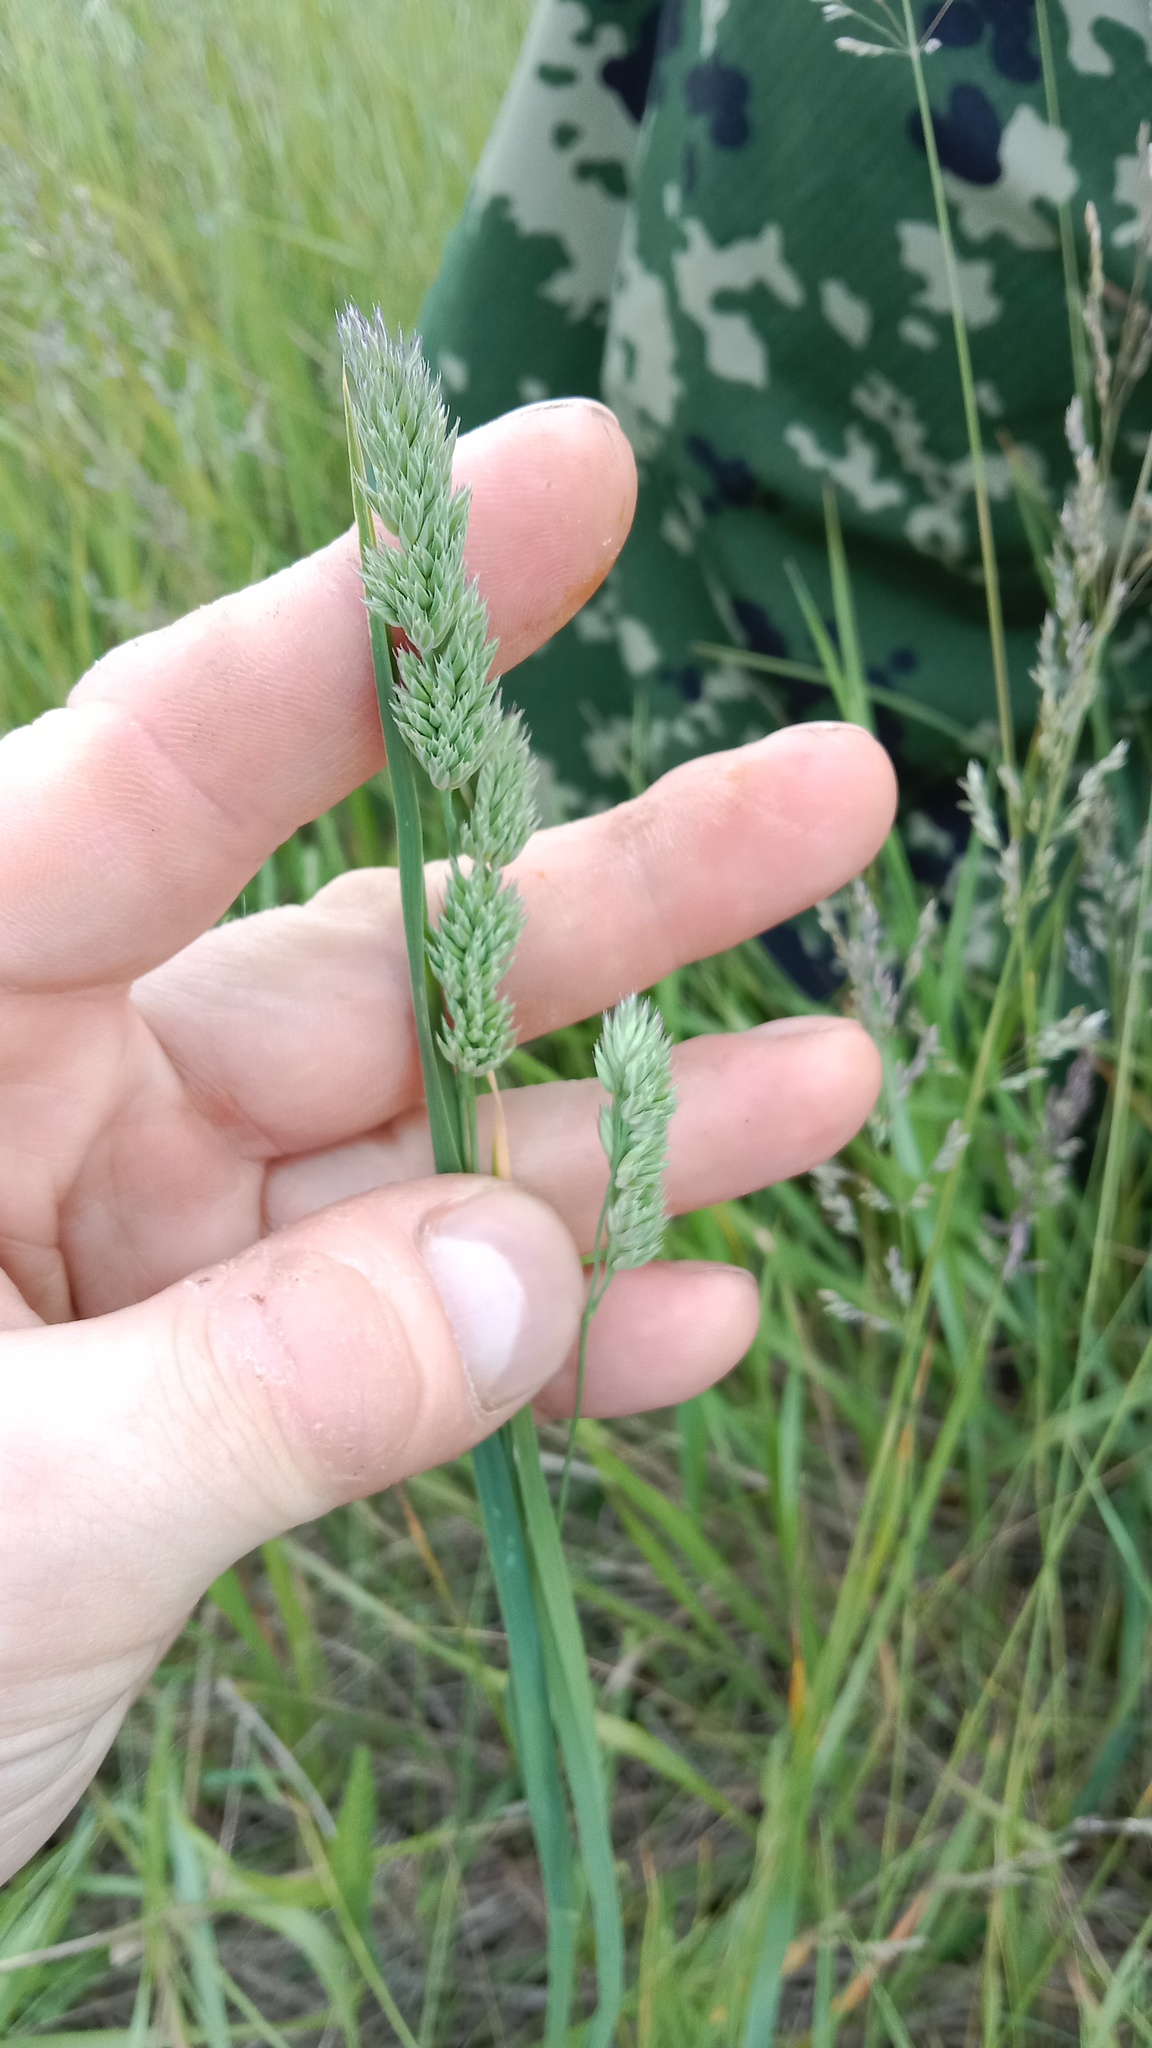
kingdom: Plantae
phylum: Tracheophyta
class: Liliopsida
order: Poales
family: Poaceae
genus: Dactylis
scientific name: Dactylis glomerata
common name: Orchardgrass
